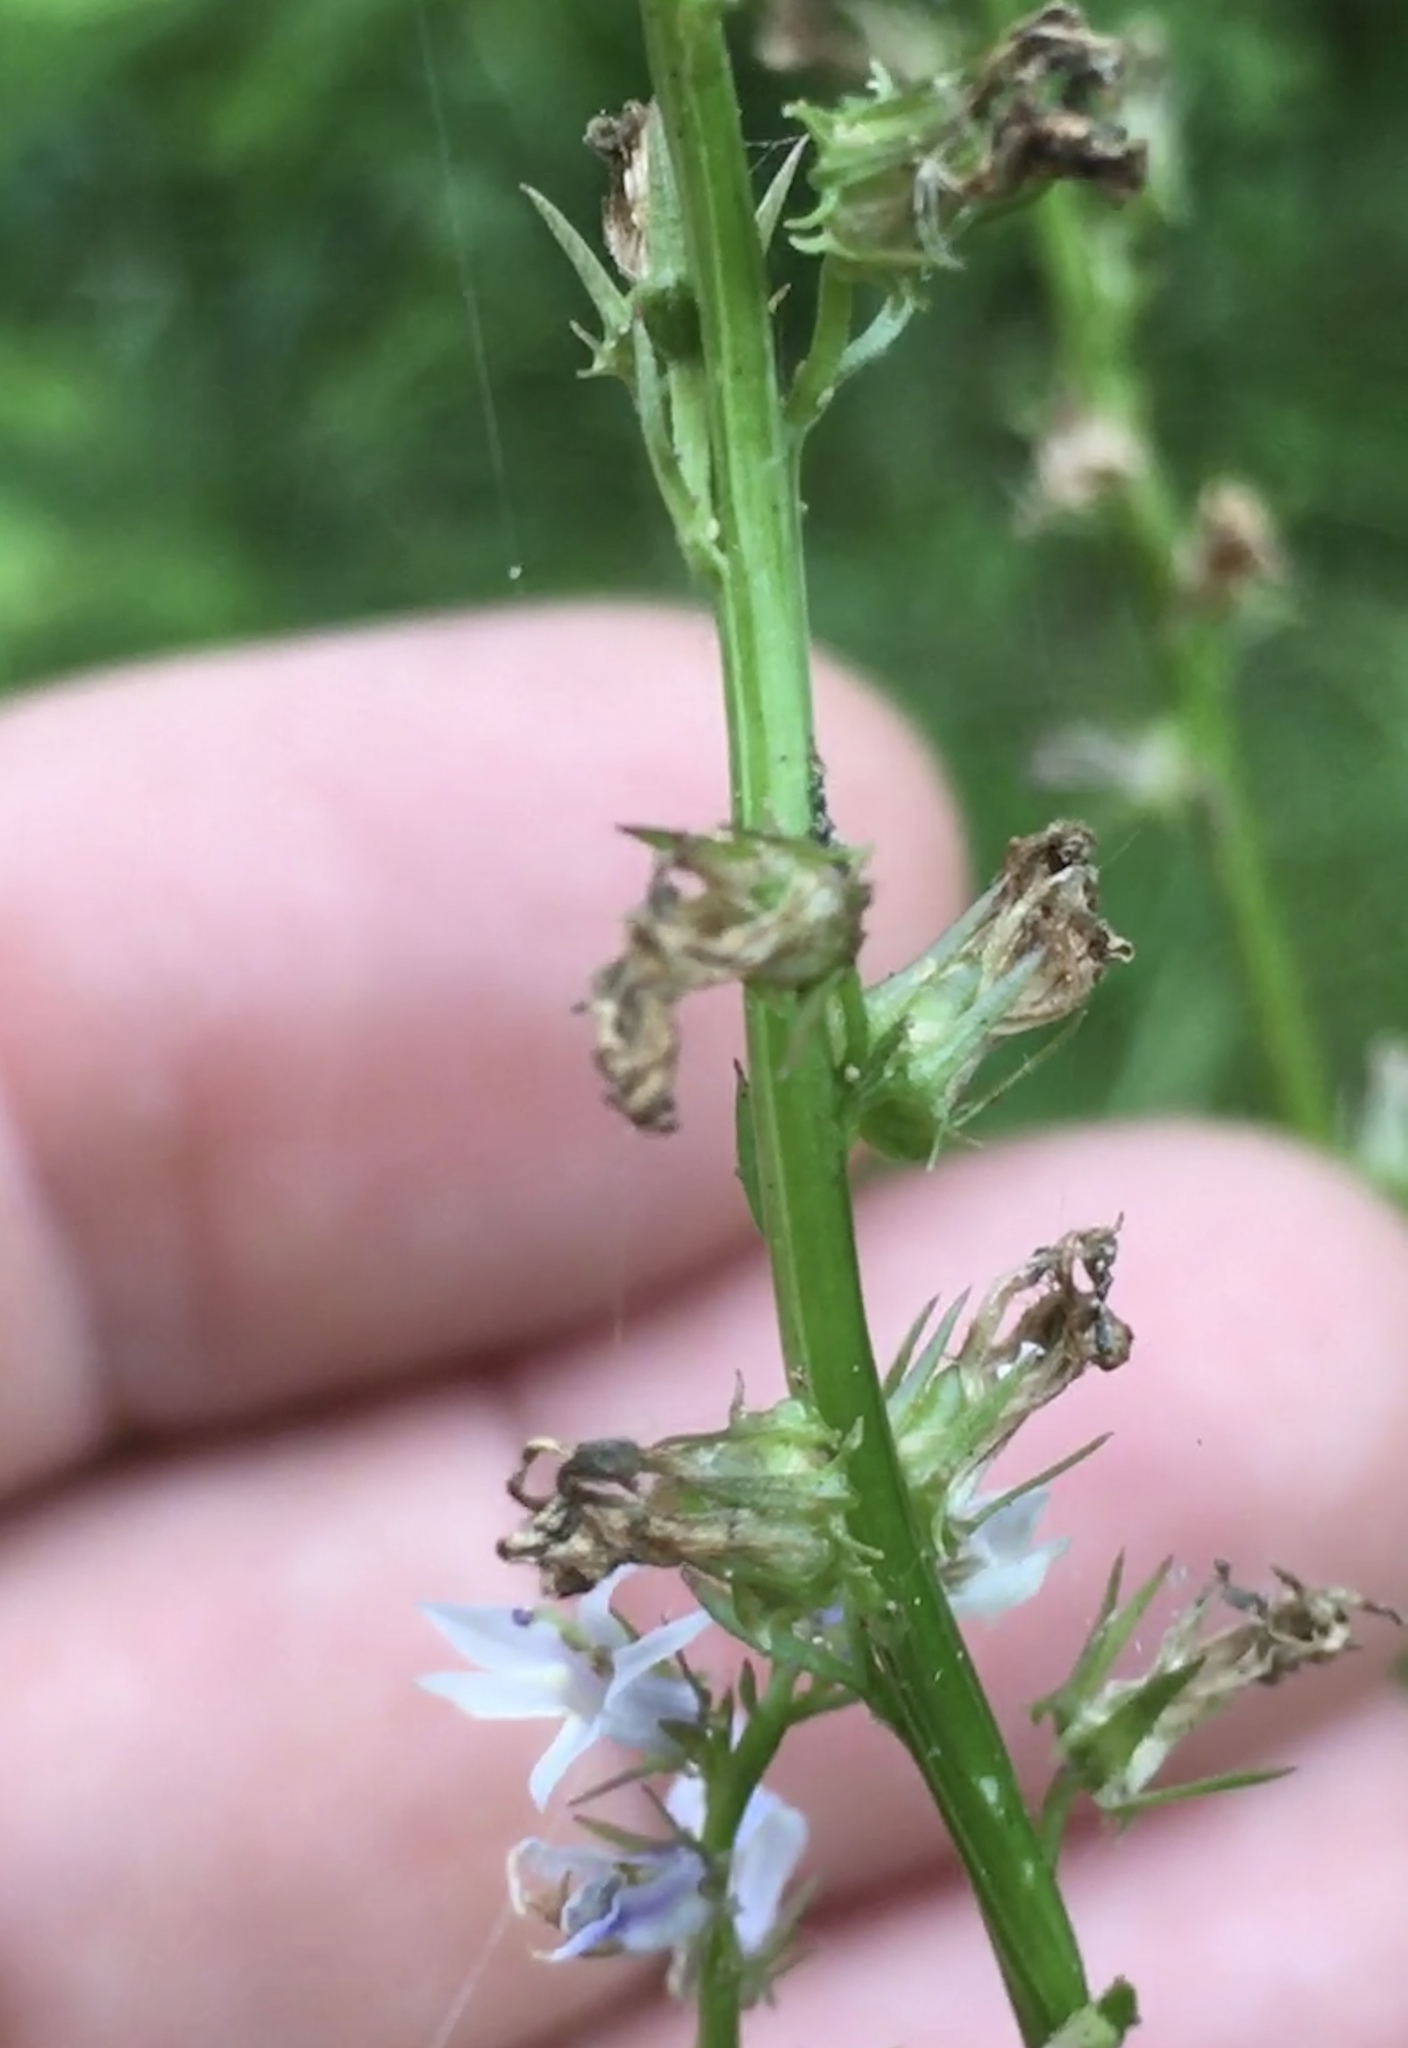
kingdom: Plantae
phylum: Tracheophyta
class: Magnoliopsida
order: Asterales
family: Campanulaceae
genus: Lobelia
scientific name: Lobelia spicata
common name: Pale-spike lobelia
